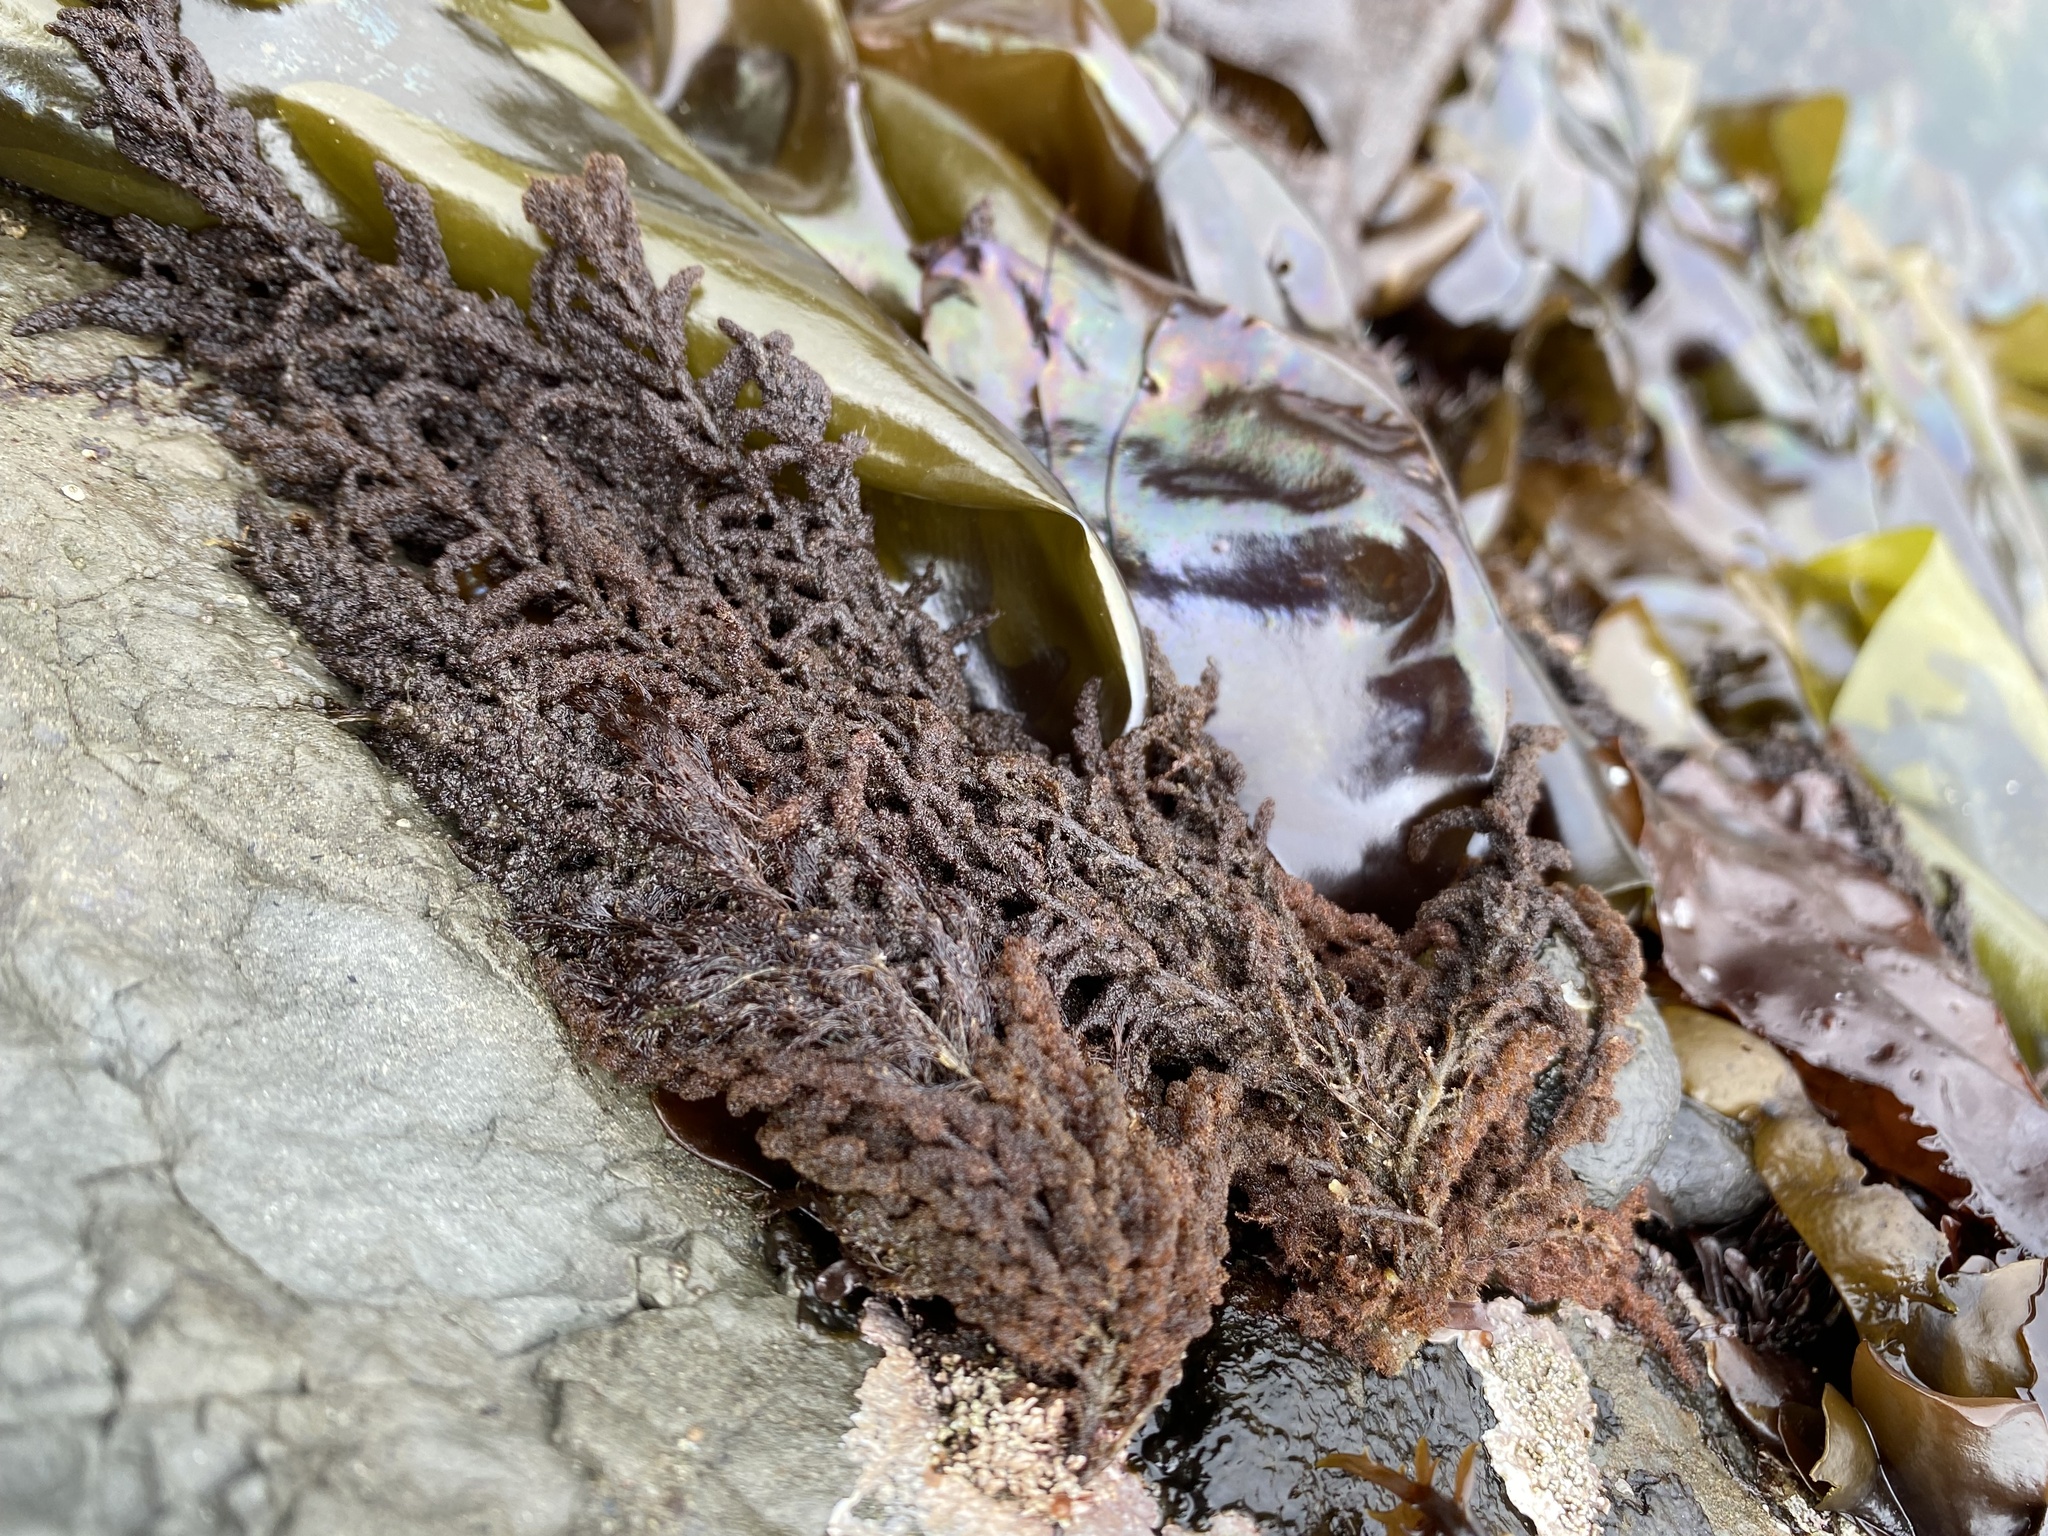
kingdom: Plantae
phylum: Rhodophyta
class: Florideophyceae
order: Ceramiales
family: Callithamniaceae
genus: Callithamnion
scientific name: Callithamnion pikeanum
